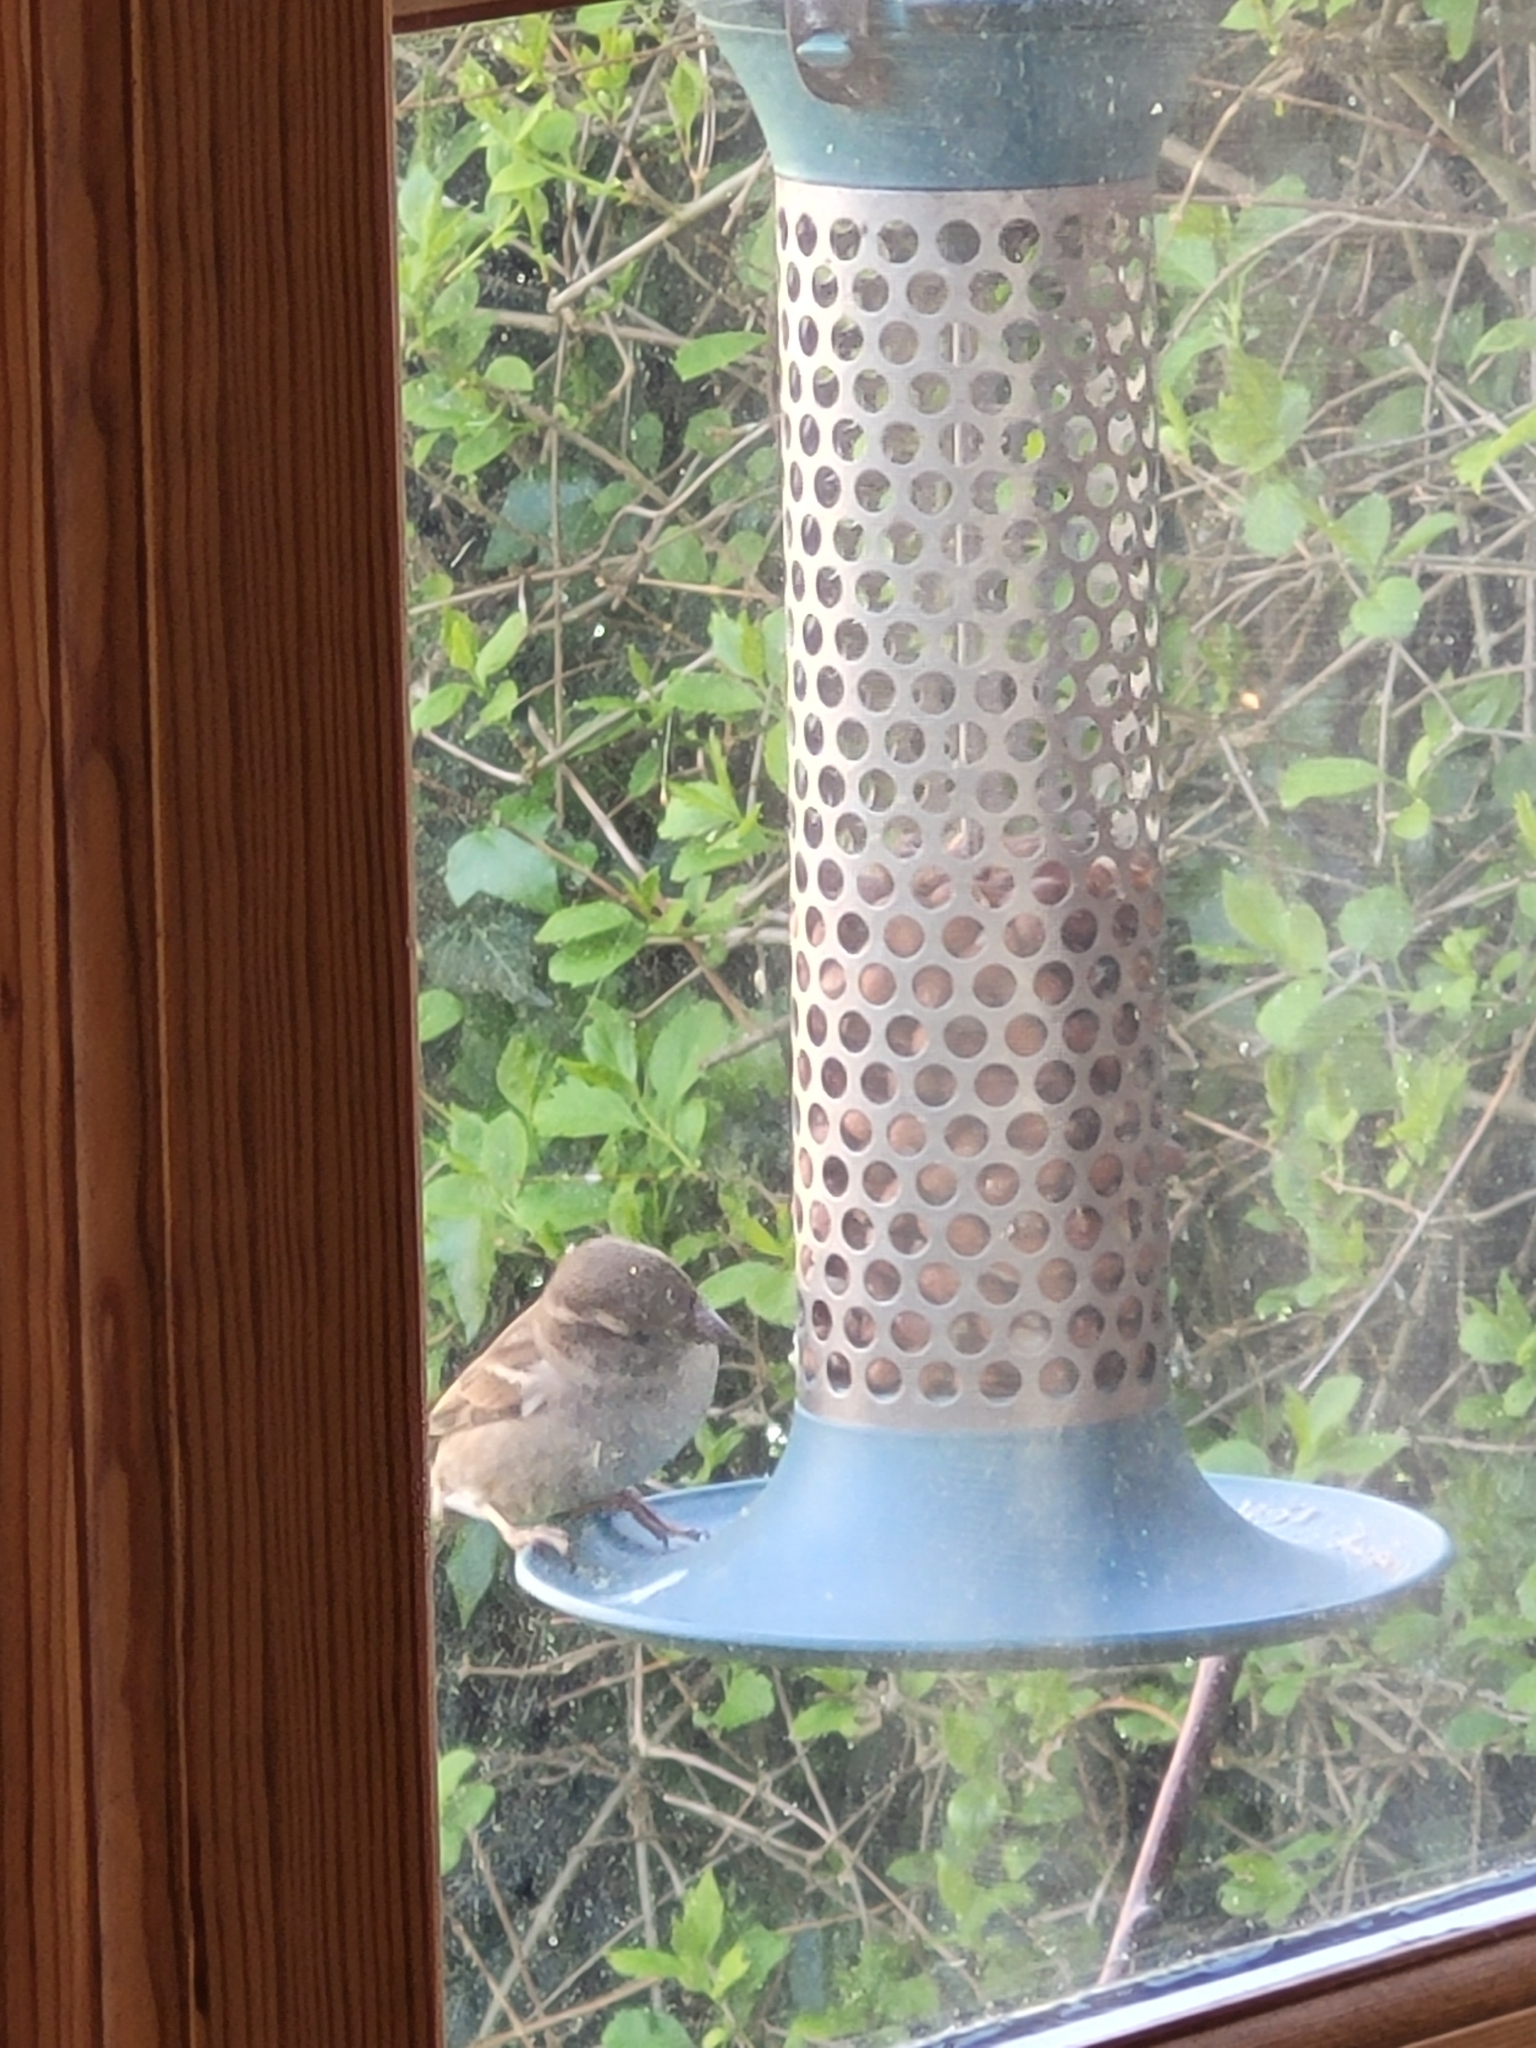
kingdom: Animalia
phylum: Chordata
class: Aves
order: Passeriformes
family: Passeridae
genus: Passer
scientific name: Passer domesticus
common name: House sparrow
